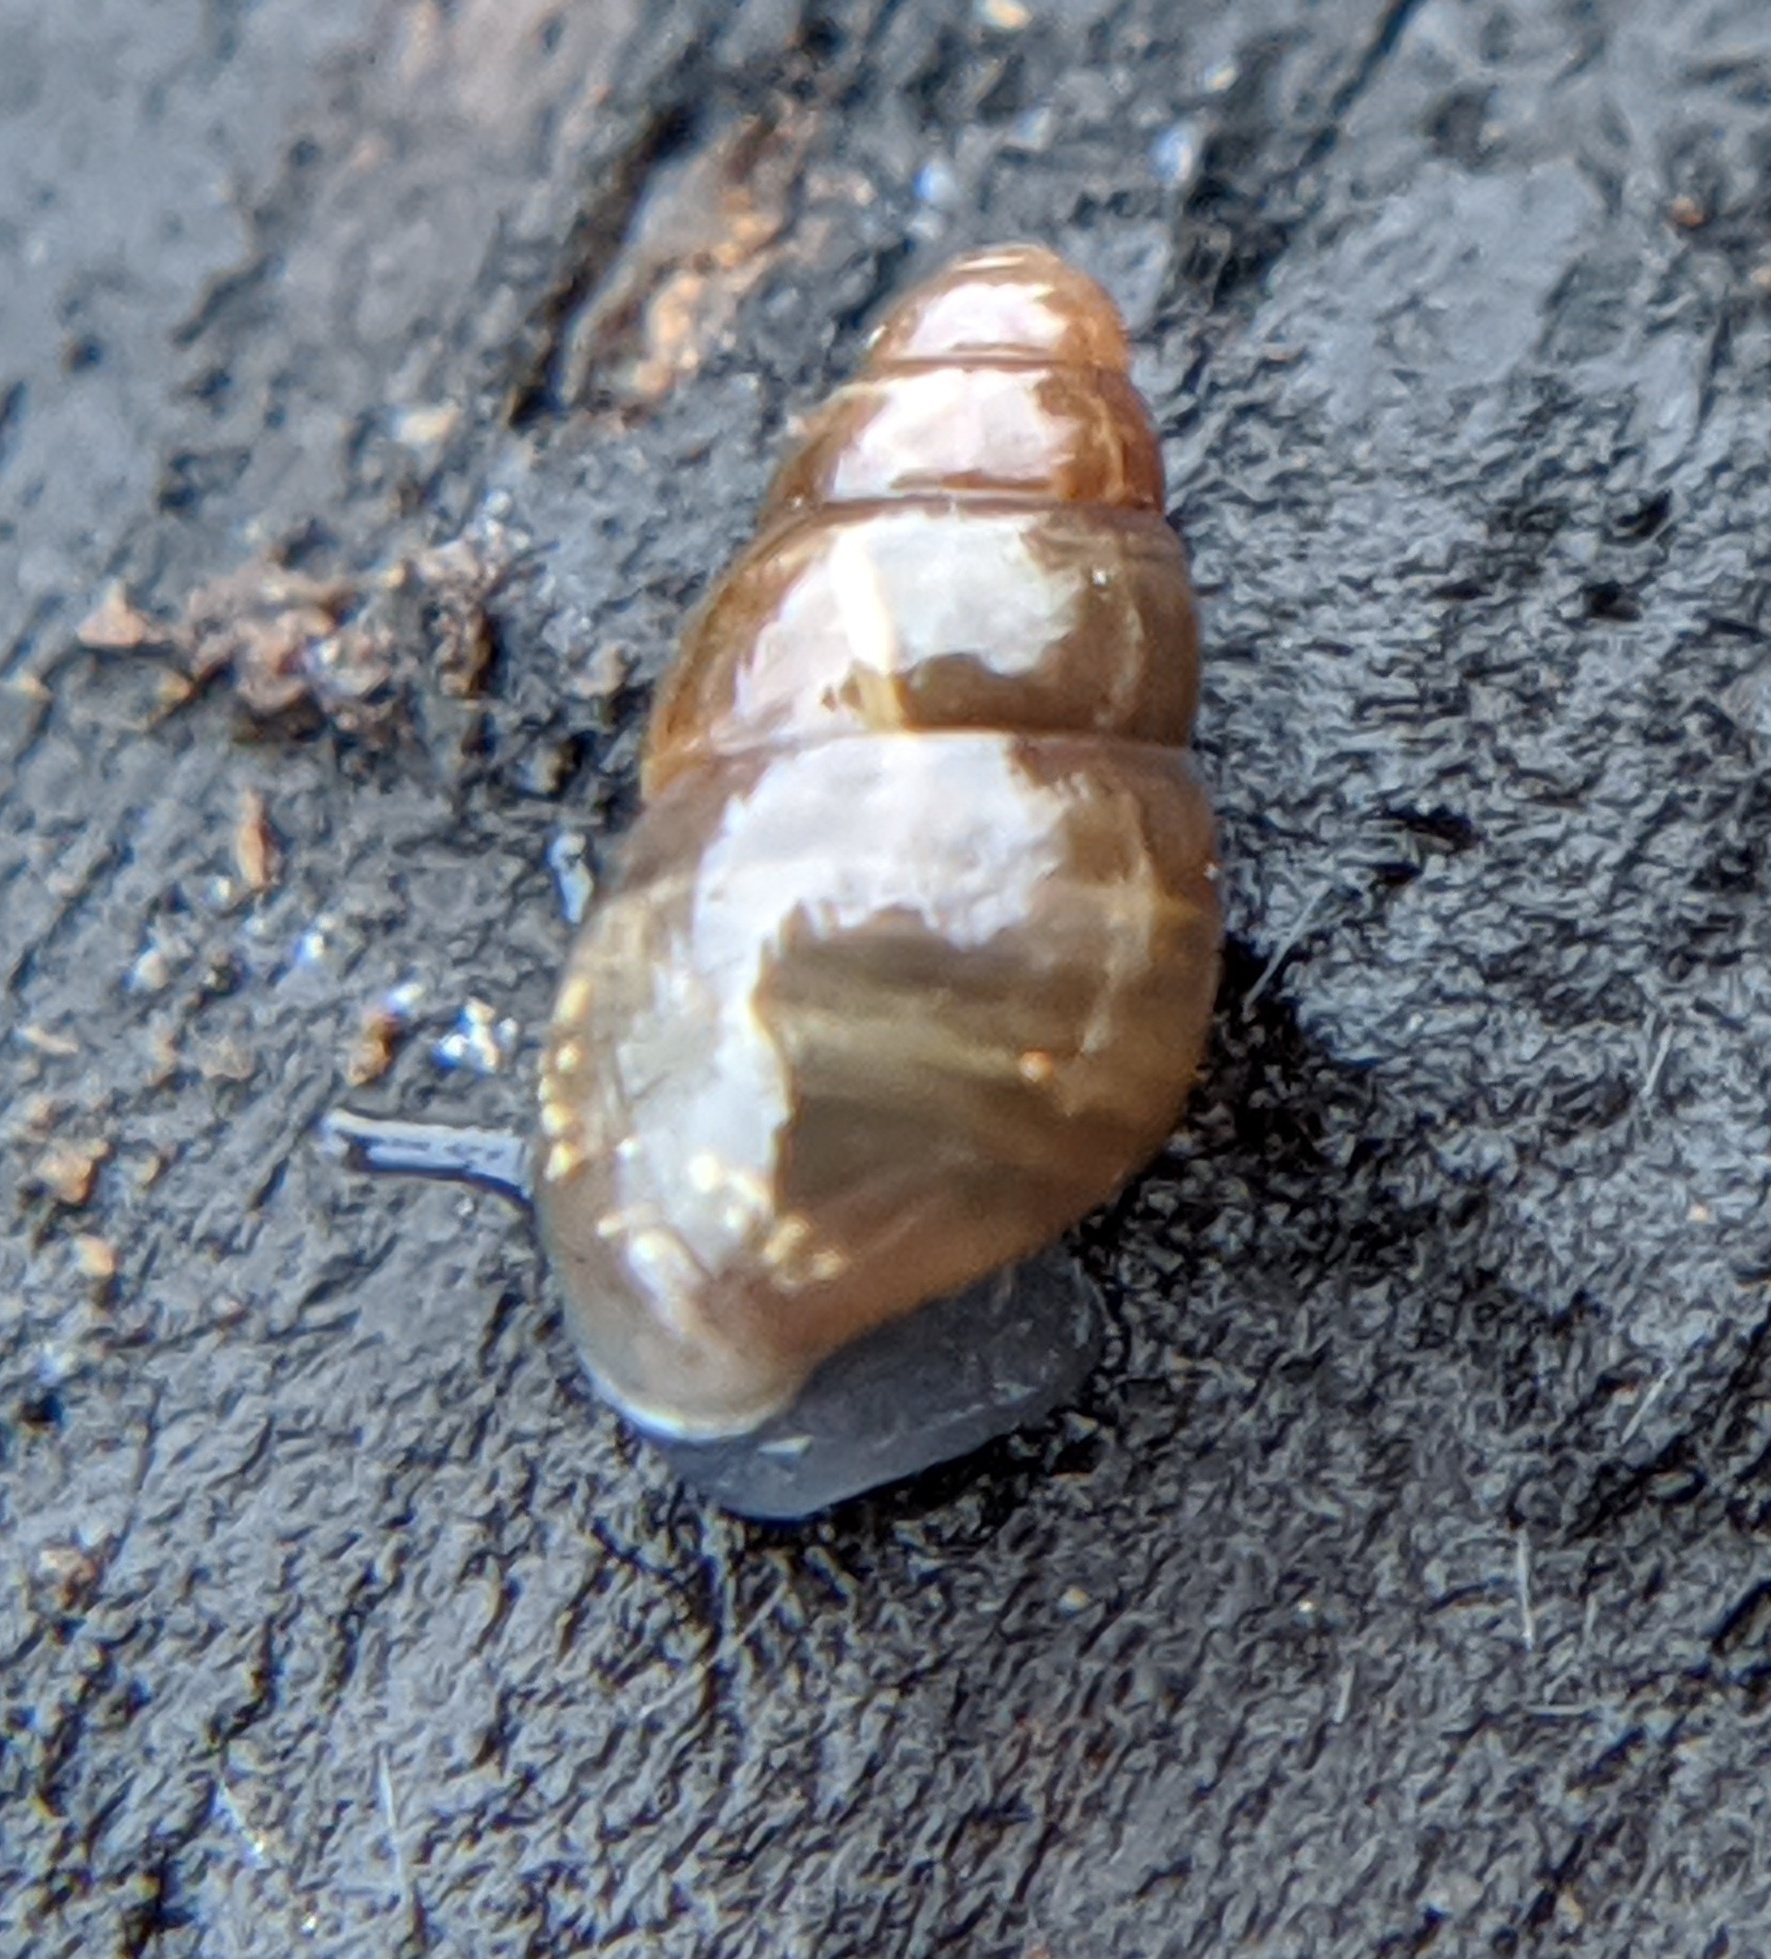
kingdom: Animalia
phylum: Mollusca
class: Gastropoda
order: Stylommatophora
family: Cochlicopidae
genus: Cochlicopa
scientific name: Cochlicopa lubrica
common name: Glossy pillar snail
